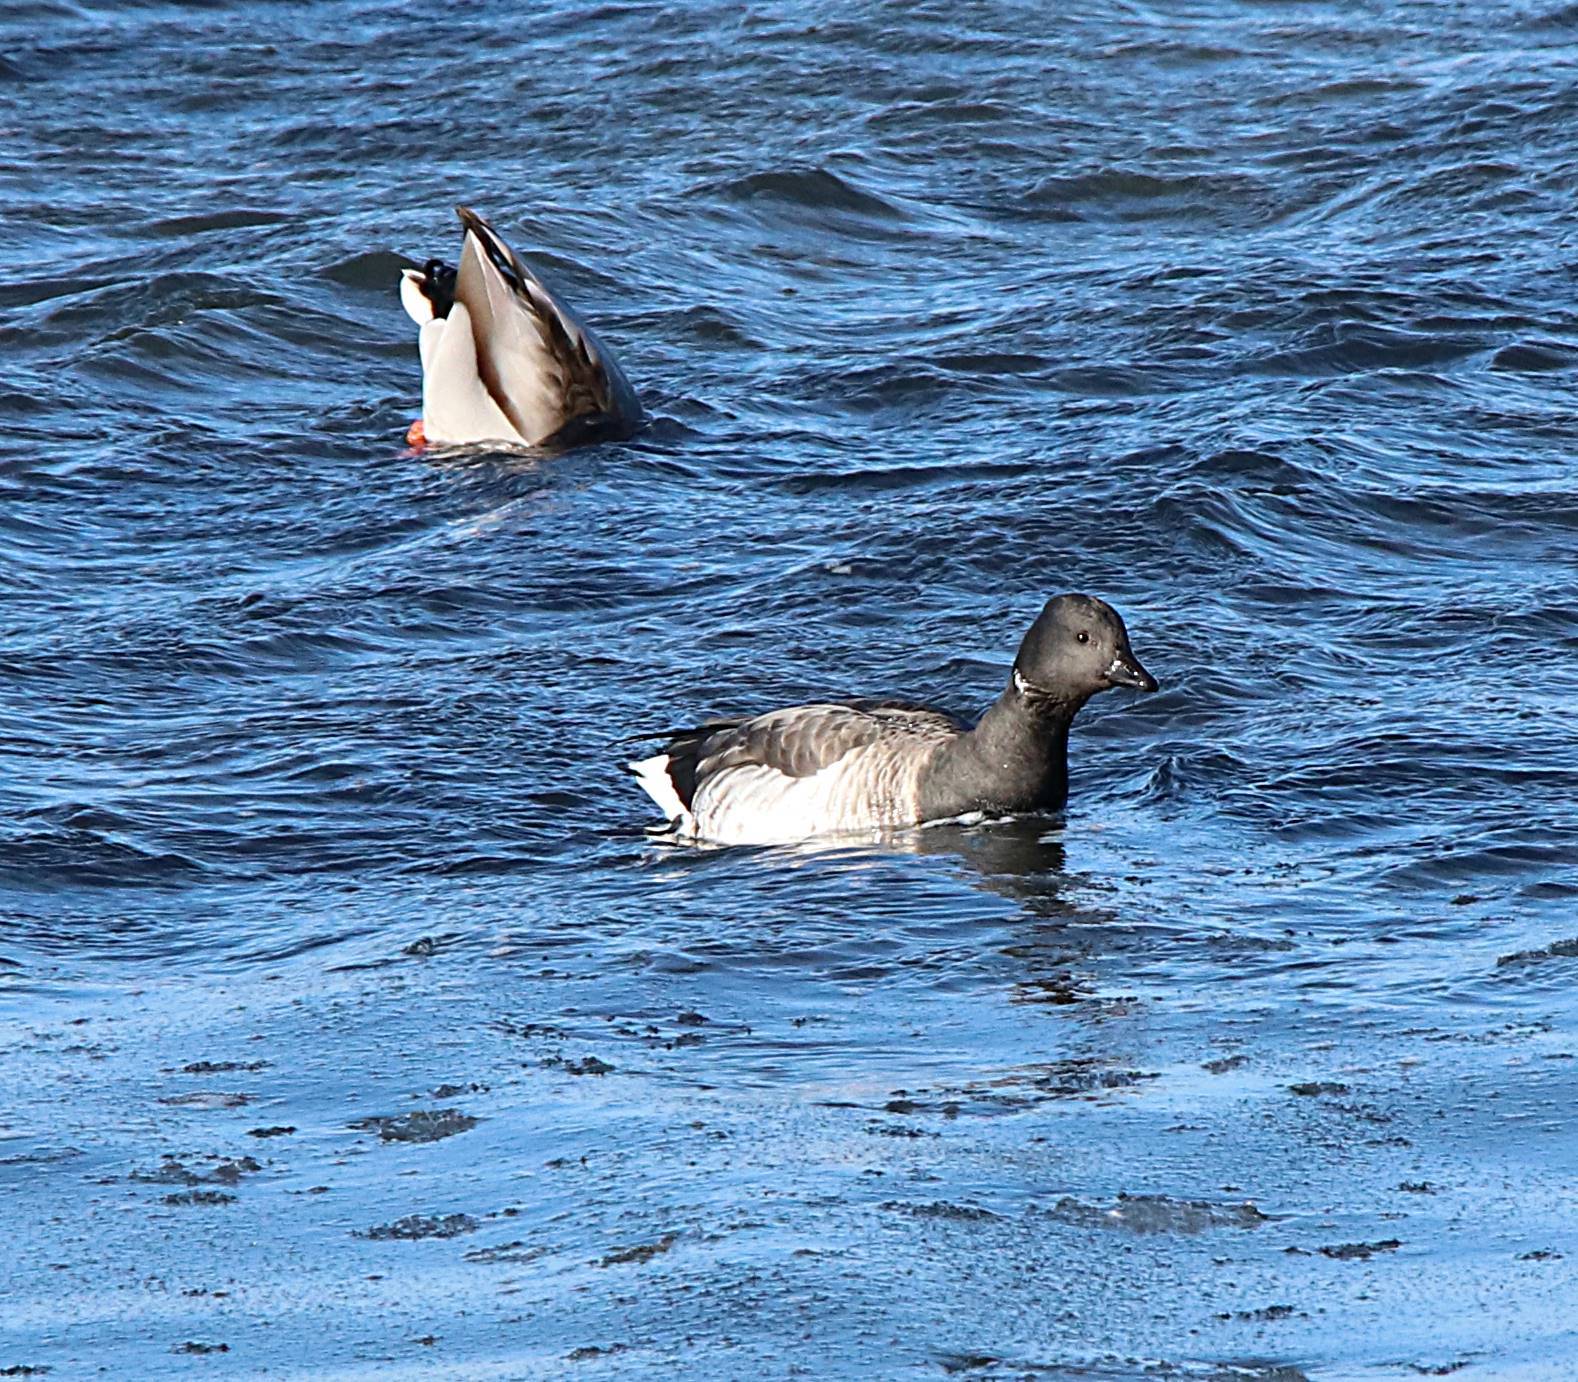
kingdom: Animalia
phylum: Chordata
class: Aves
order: Anseriformes
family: Anatidae
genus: Branta
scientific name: Branta bernicla
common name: Brant goose
